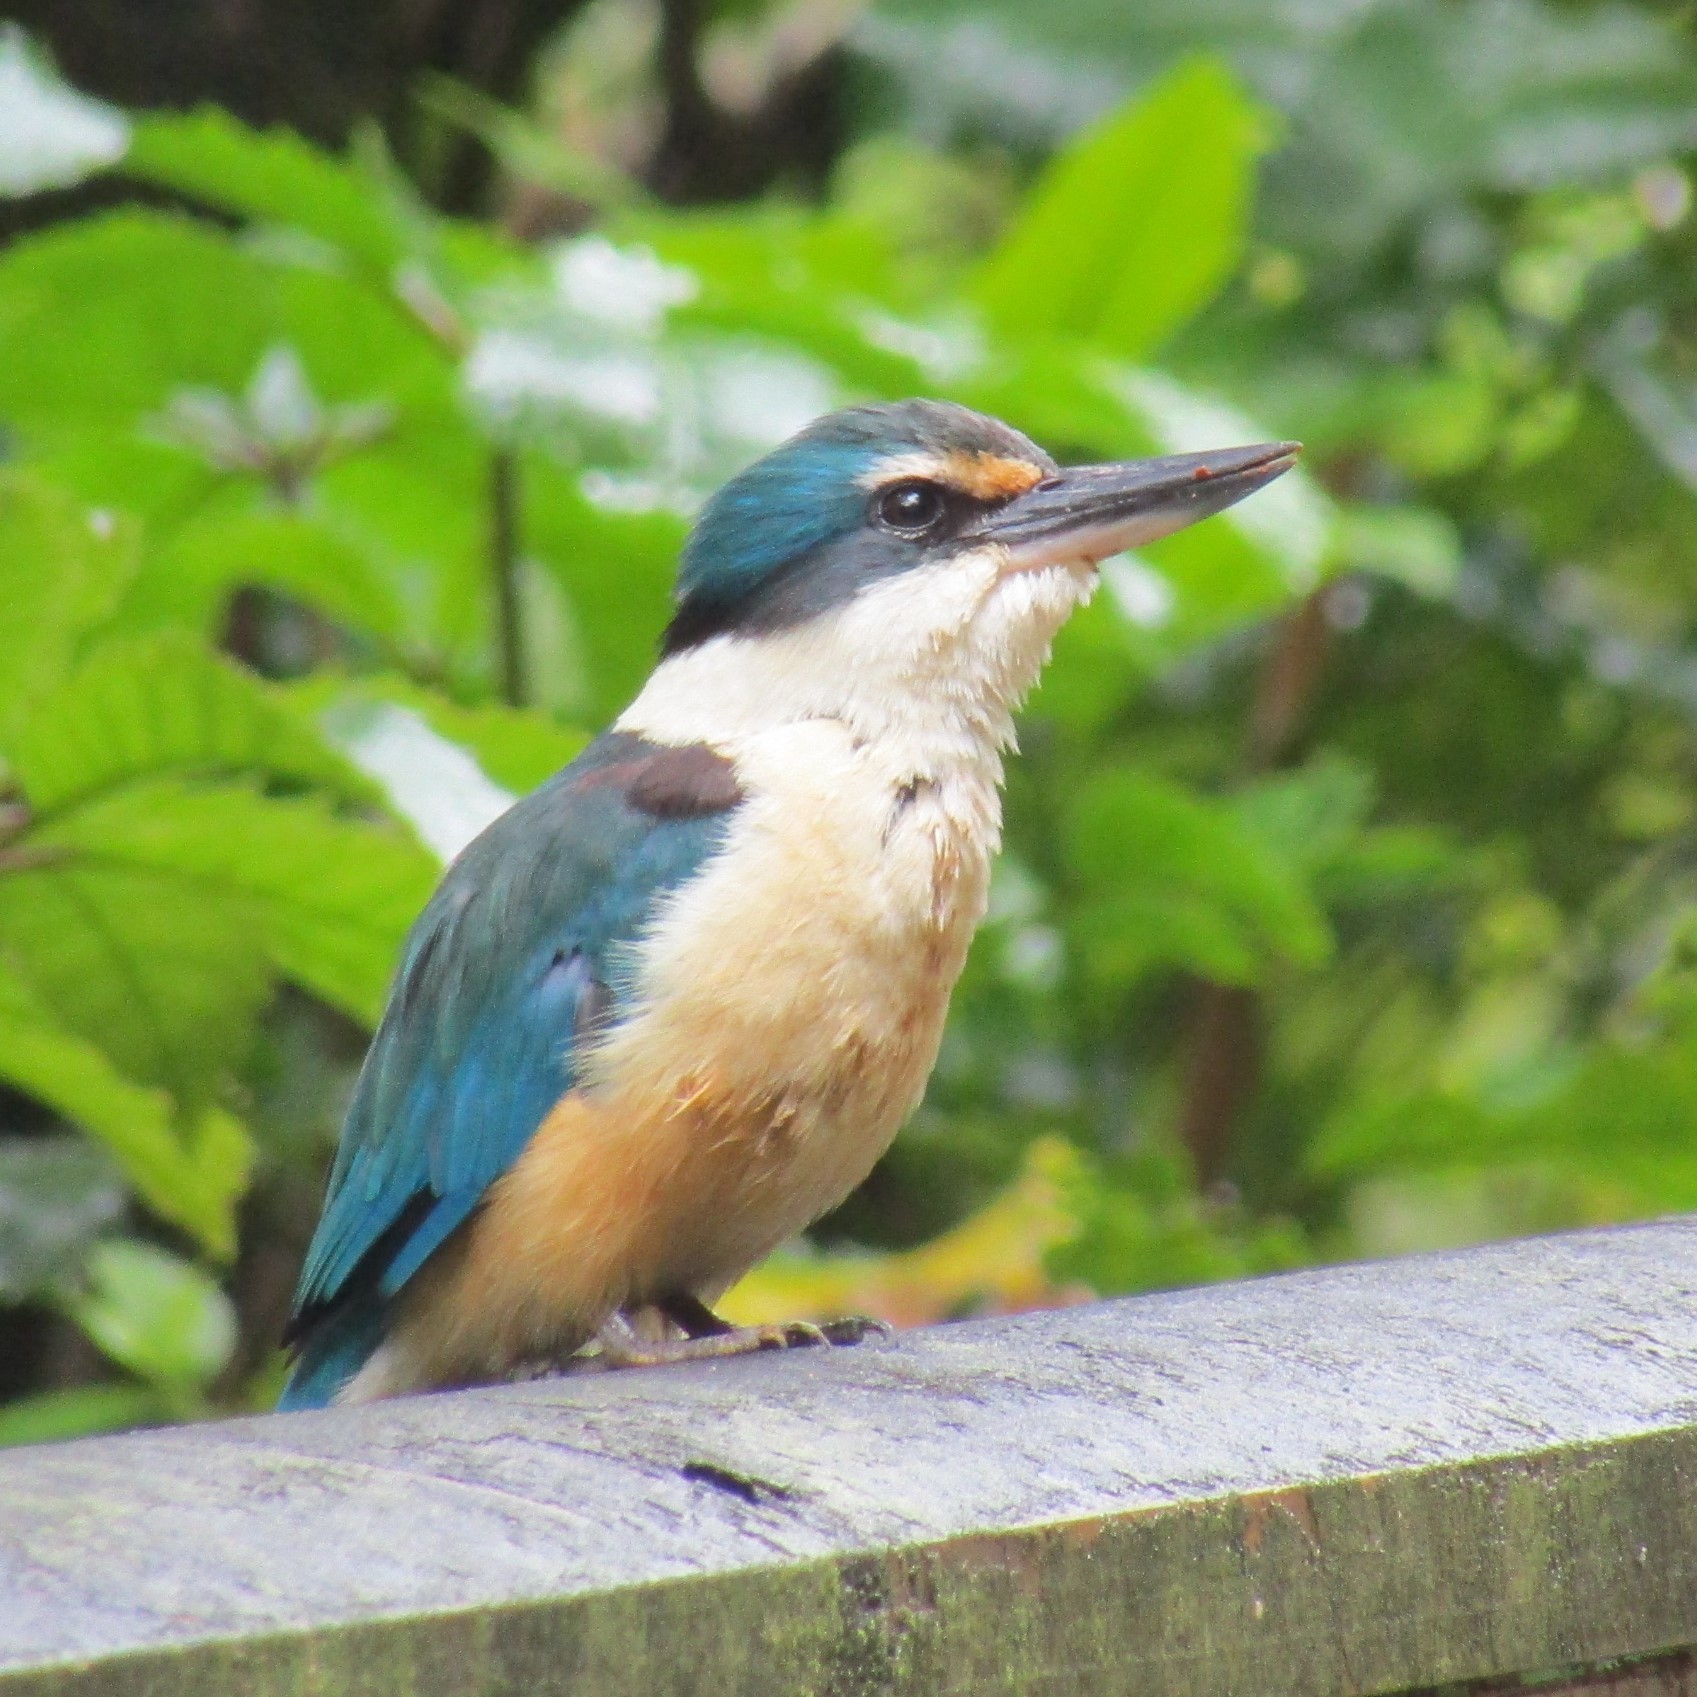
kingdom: Animalia
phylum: Chordata
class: Aves
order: Coraciiformes
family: Alcedinidae
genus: Todiramphus
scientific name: Todiramphus sanctus
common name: Sacred kingfisher
